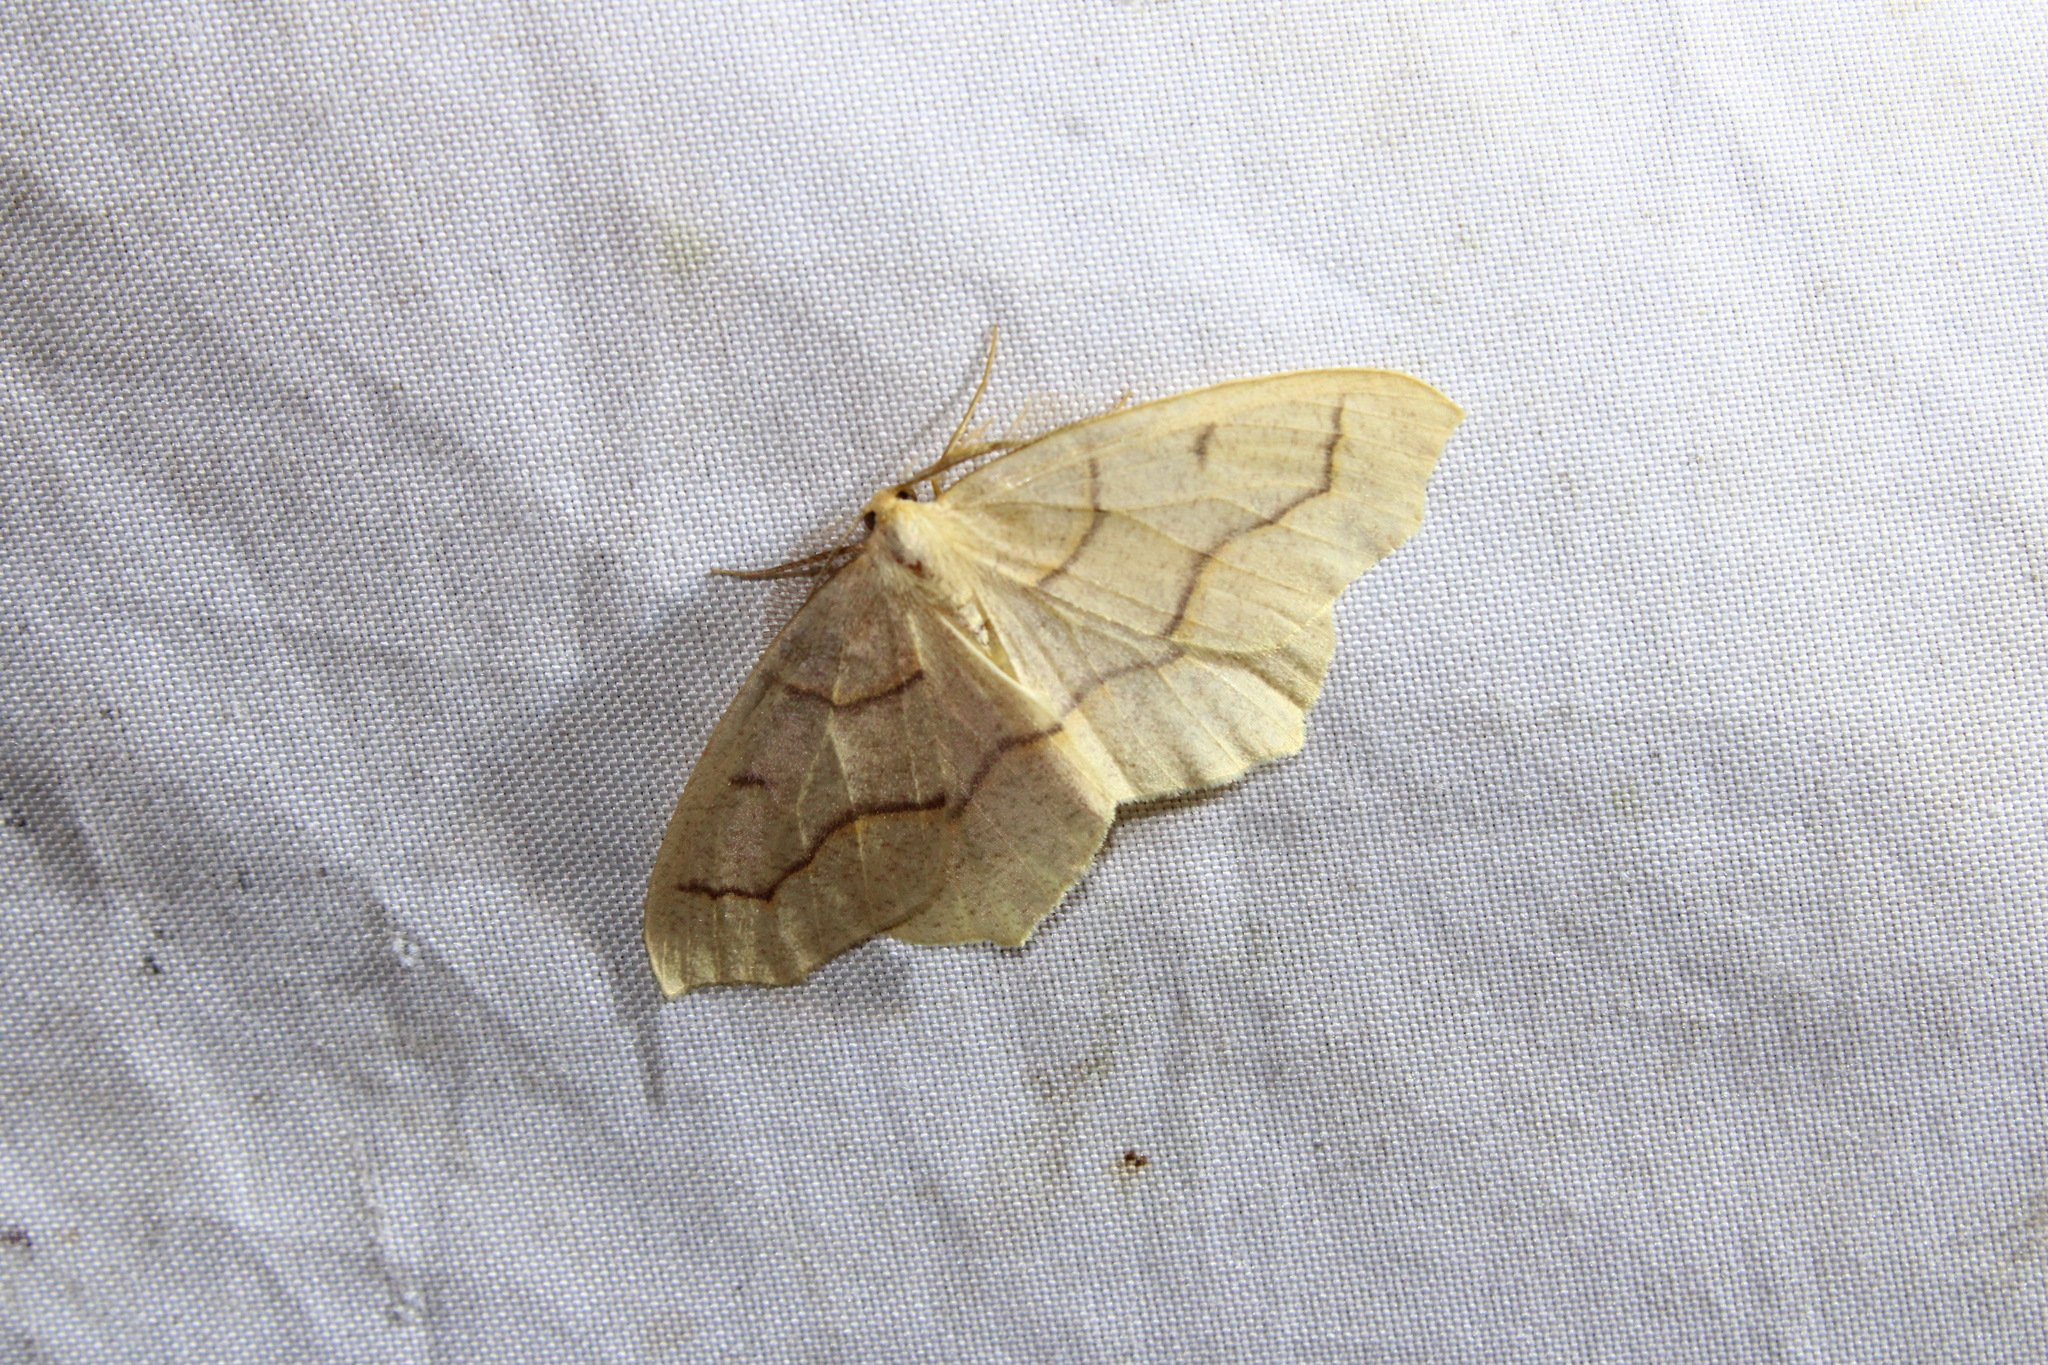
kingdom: Animalia
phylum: Arthropoda
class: Insecta
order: Lepidoptera
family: Geometridae
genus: Lambdina
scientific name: Lambdina fiscellaria
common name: Hemlock looper
